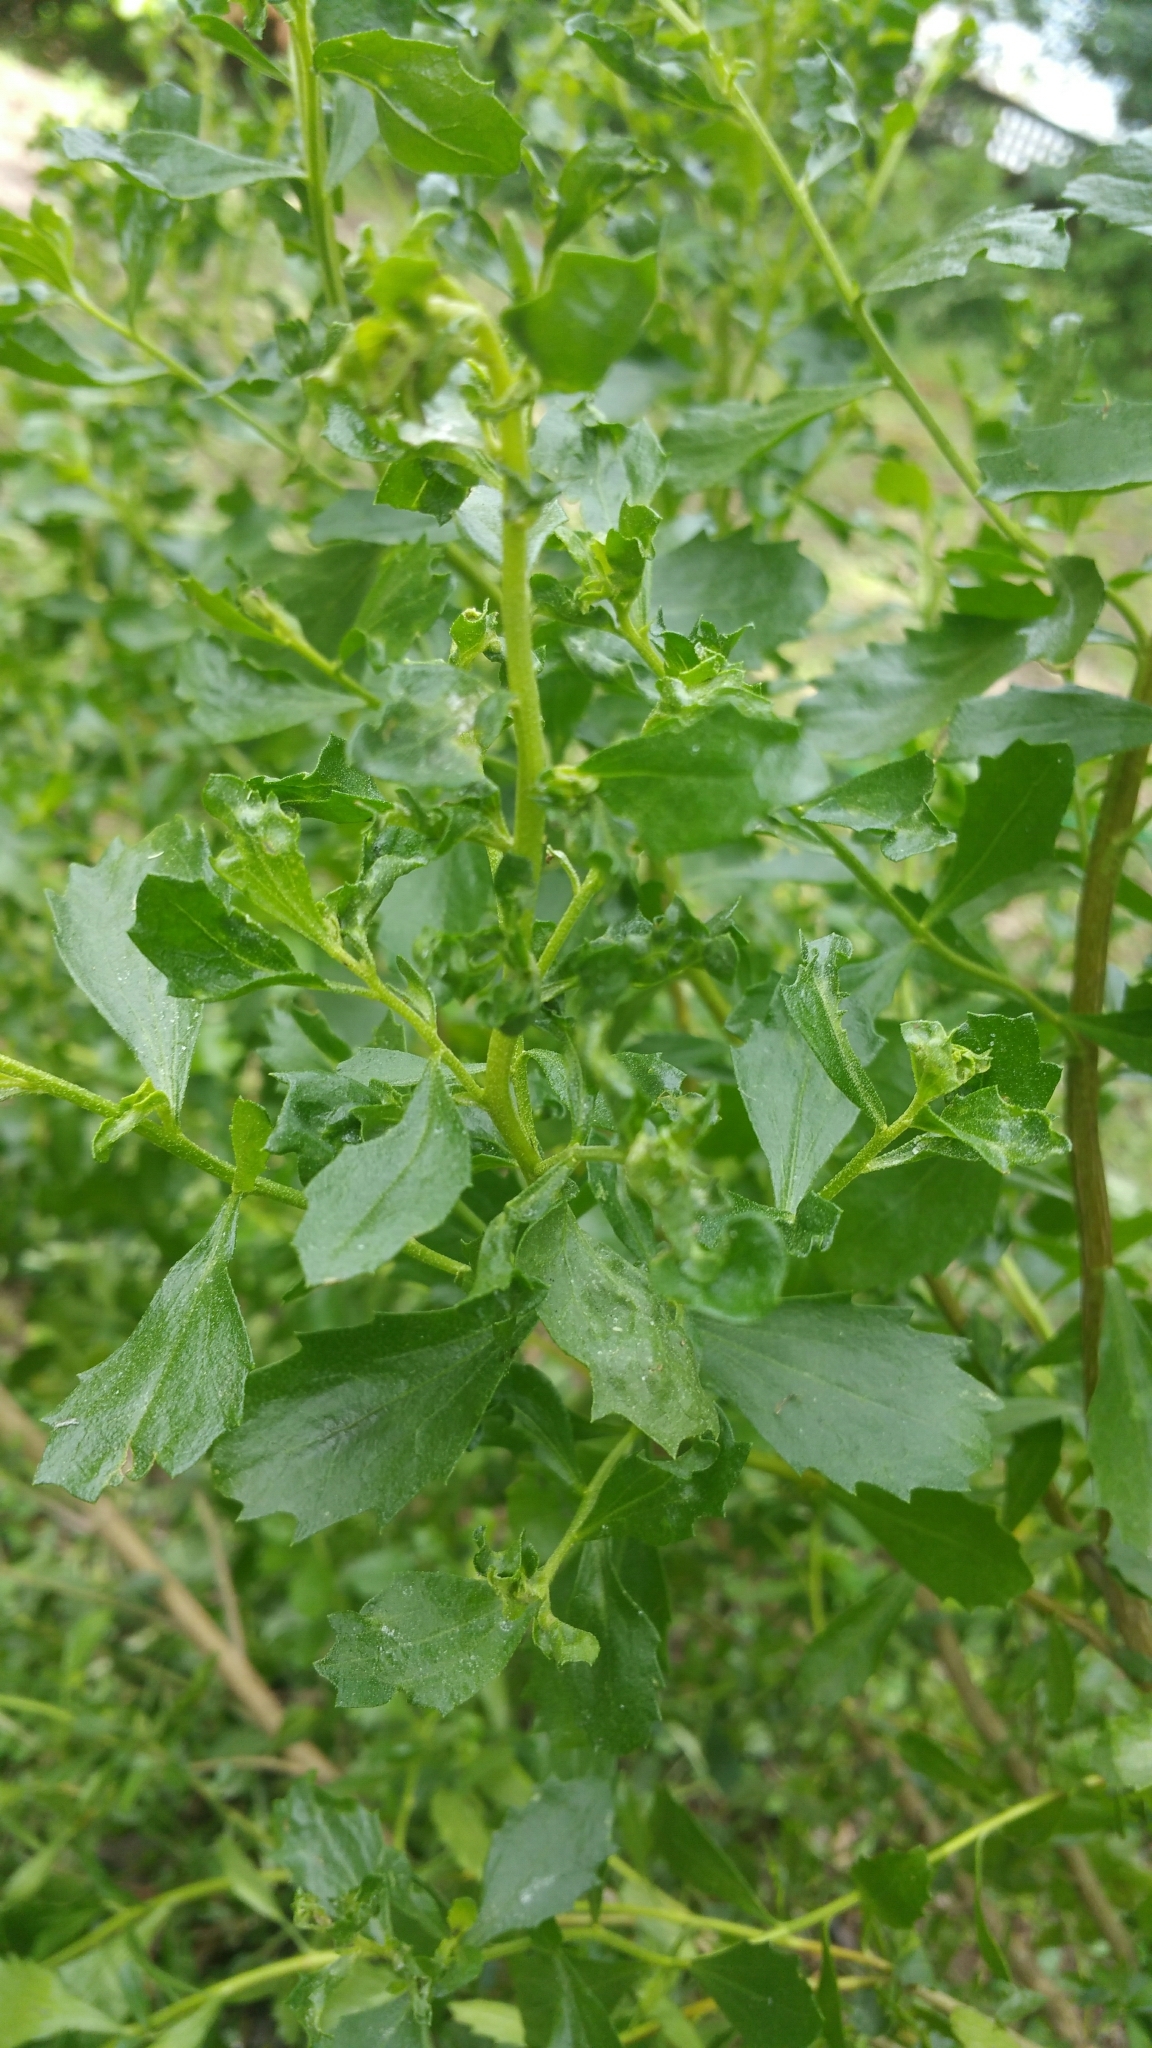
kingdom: Plantae
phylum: Tracheophyta
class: Magnoliopsida
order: Asterales
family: Asteraceae
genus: Baccharis
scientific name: Baccharis pilularis
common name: Coyotebrush
